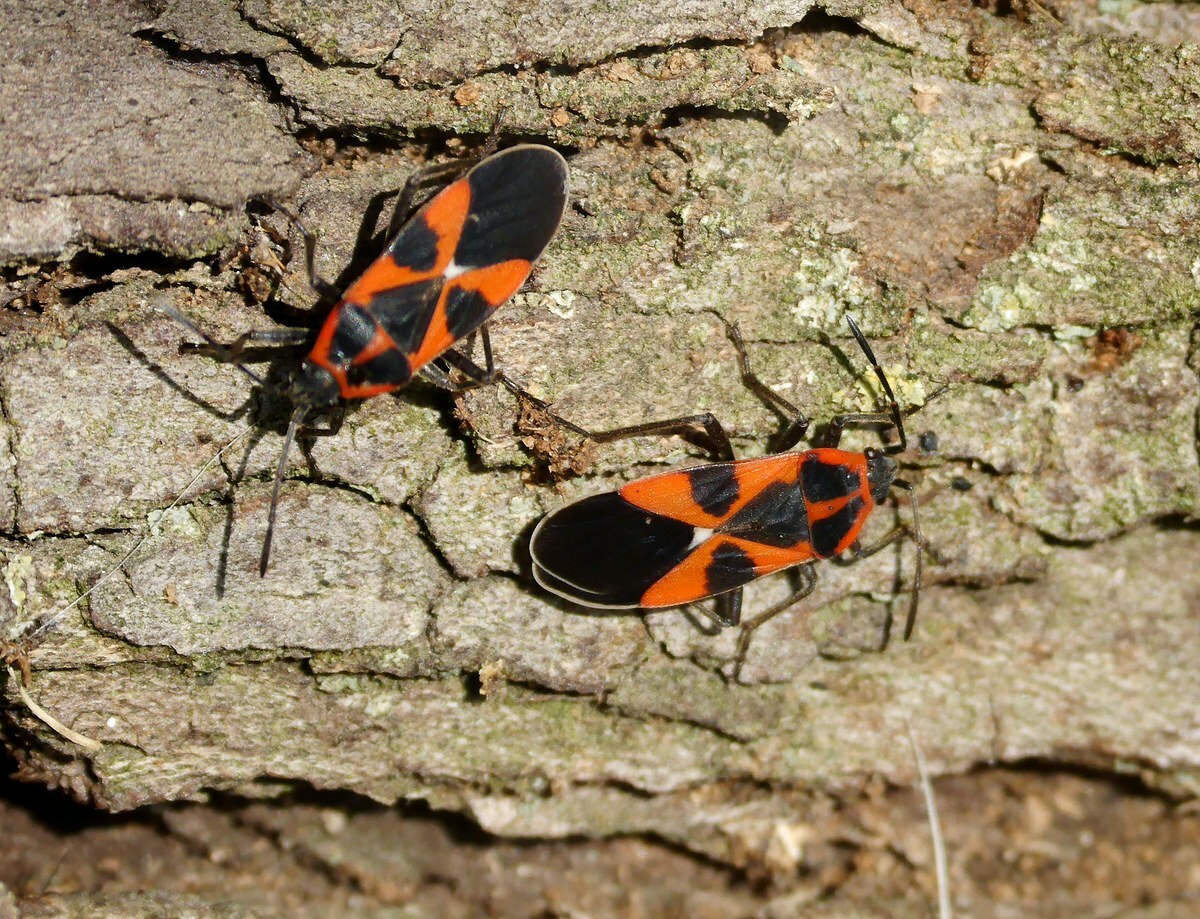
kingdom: Animalia
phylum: Arthropoda
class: Insecta
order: Hemiptera
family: Lygaeidae
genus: Tropidothorax
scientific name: Tropidothorax leucopterus
